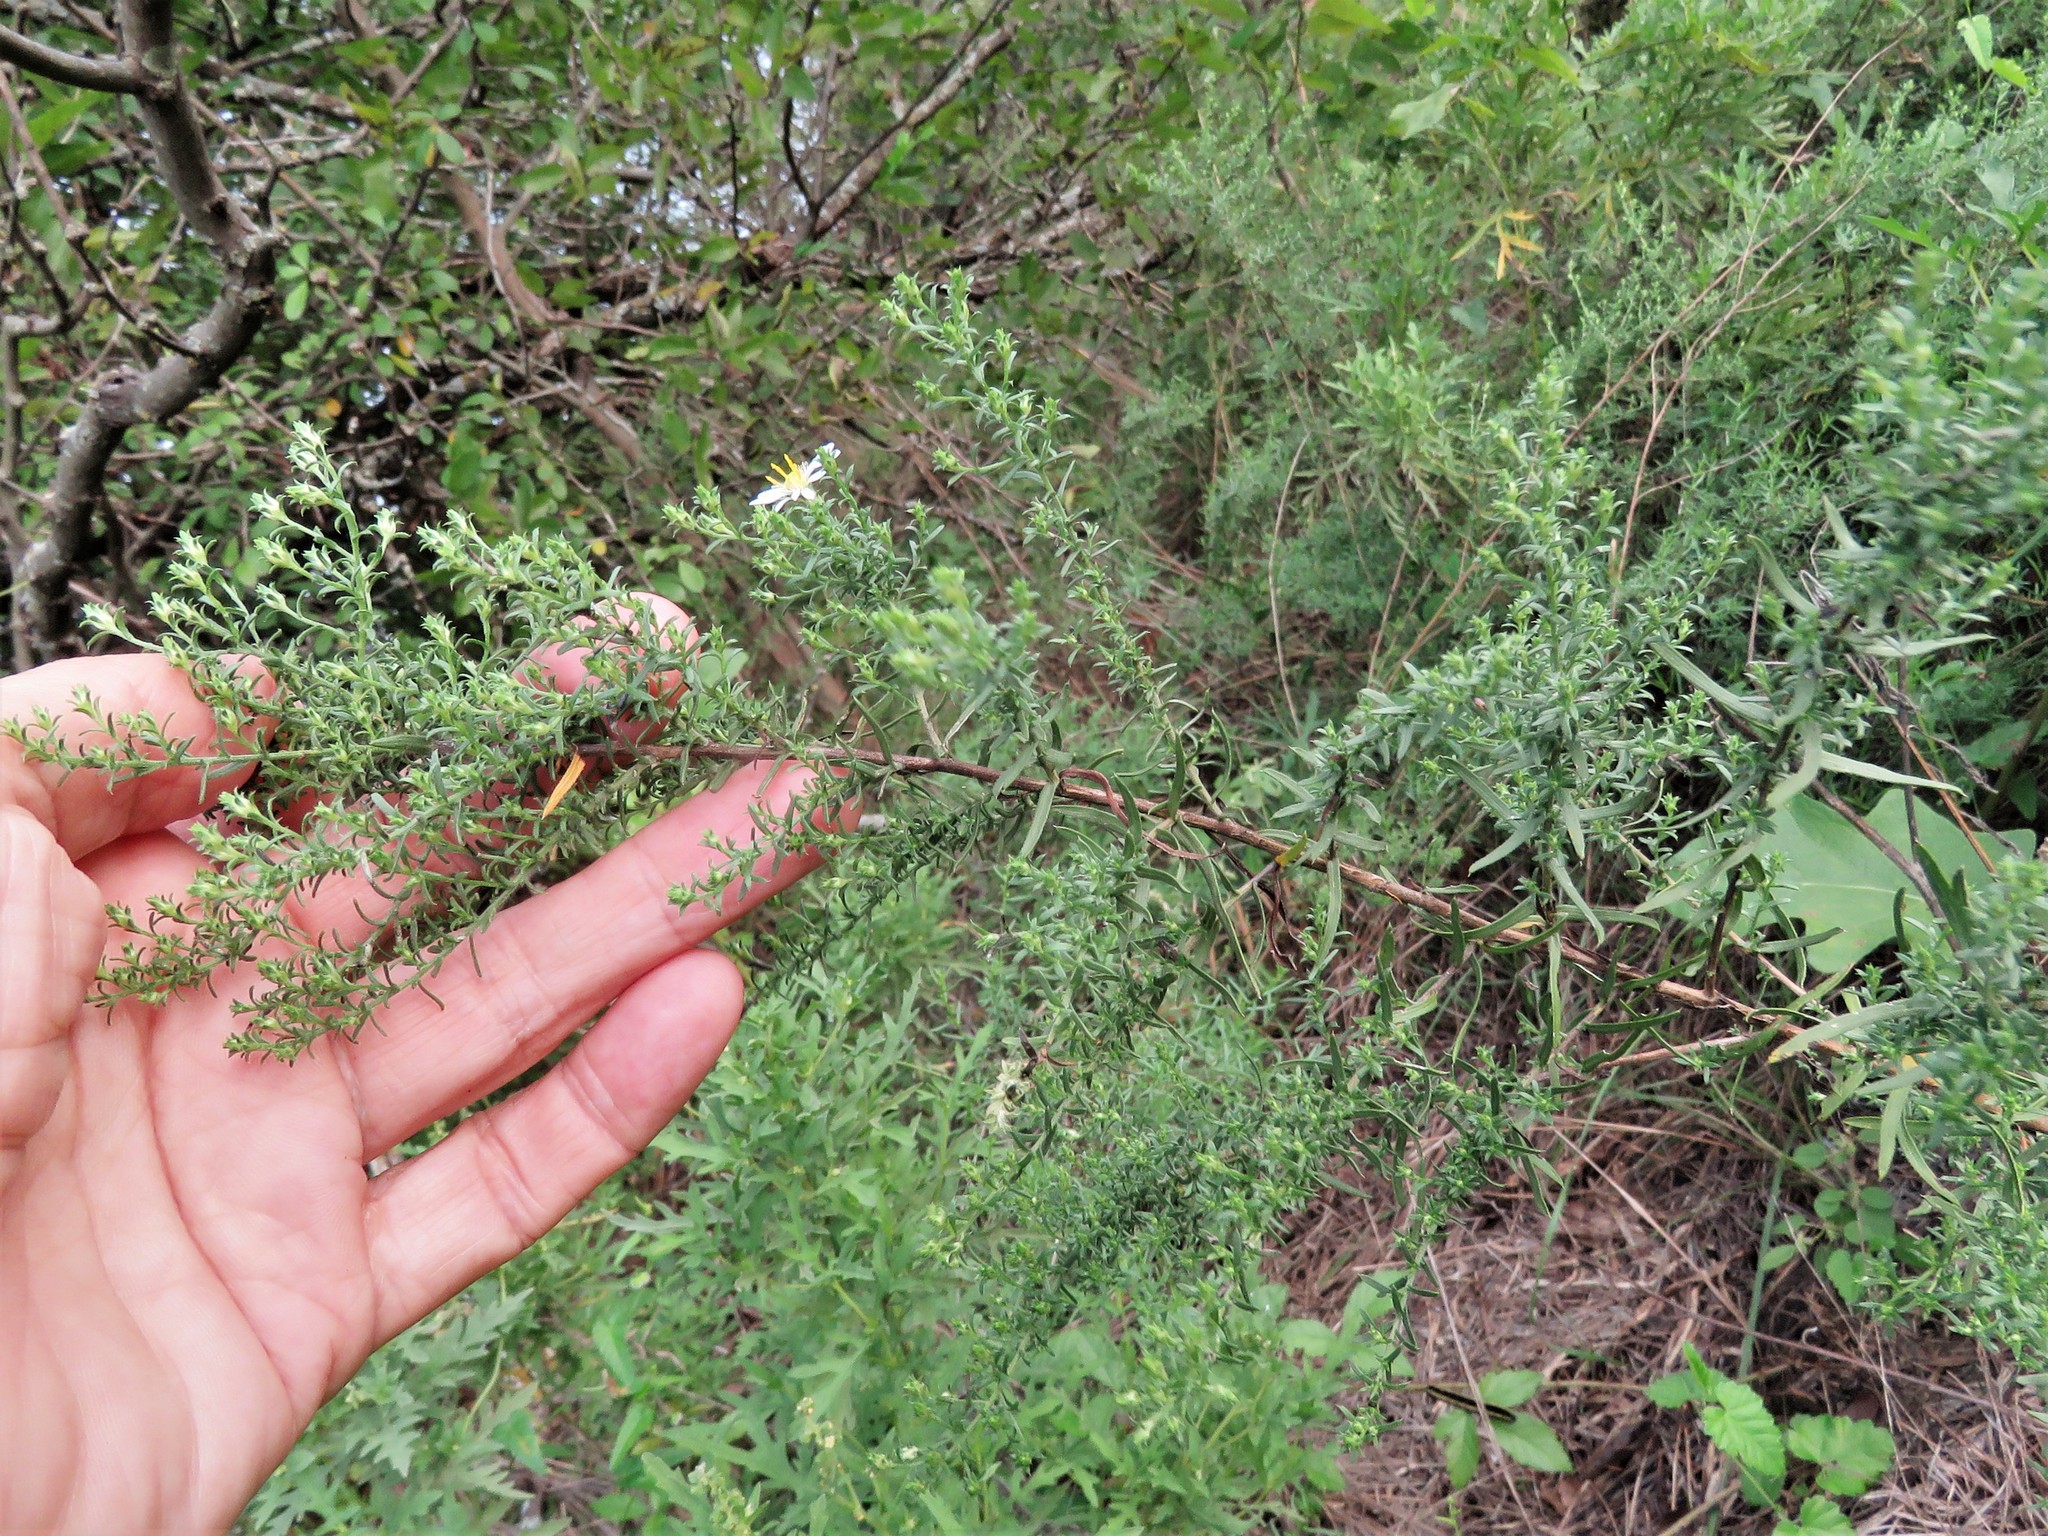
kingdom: Plantae
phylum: Tracheophyta
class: Magnoliopsida
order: Asterales
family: Asteraceae
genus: Symphyotrichum
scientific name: Symphyotrichum ericoides
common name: Heath aster
